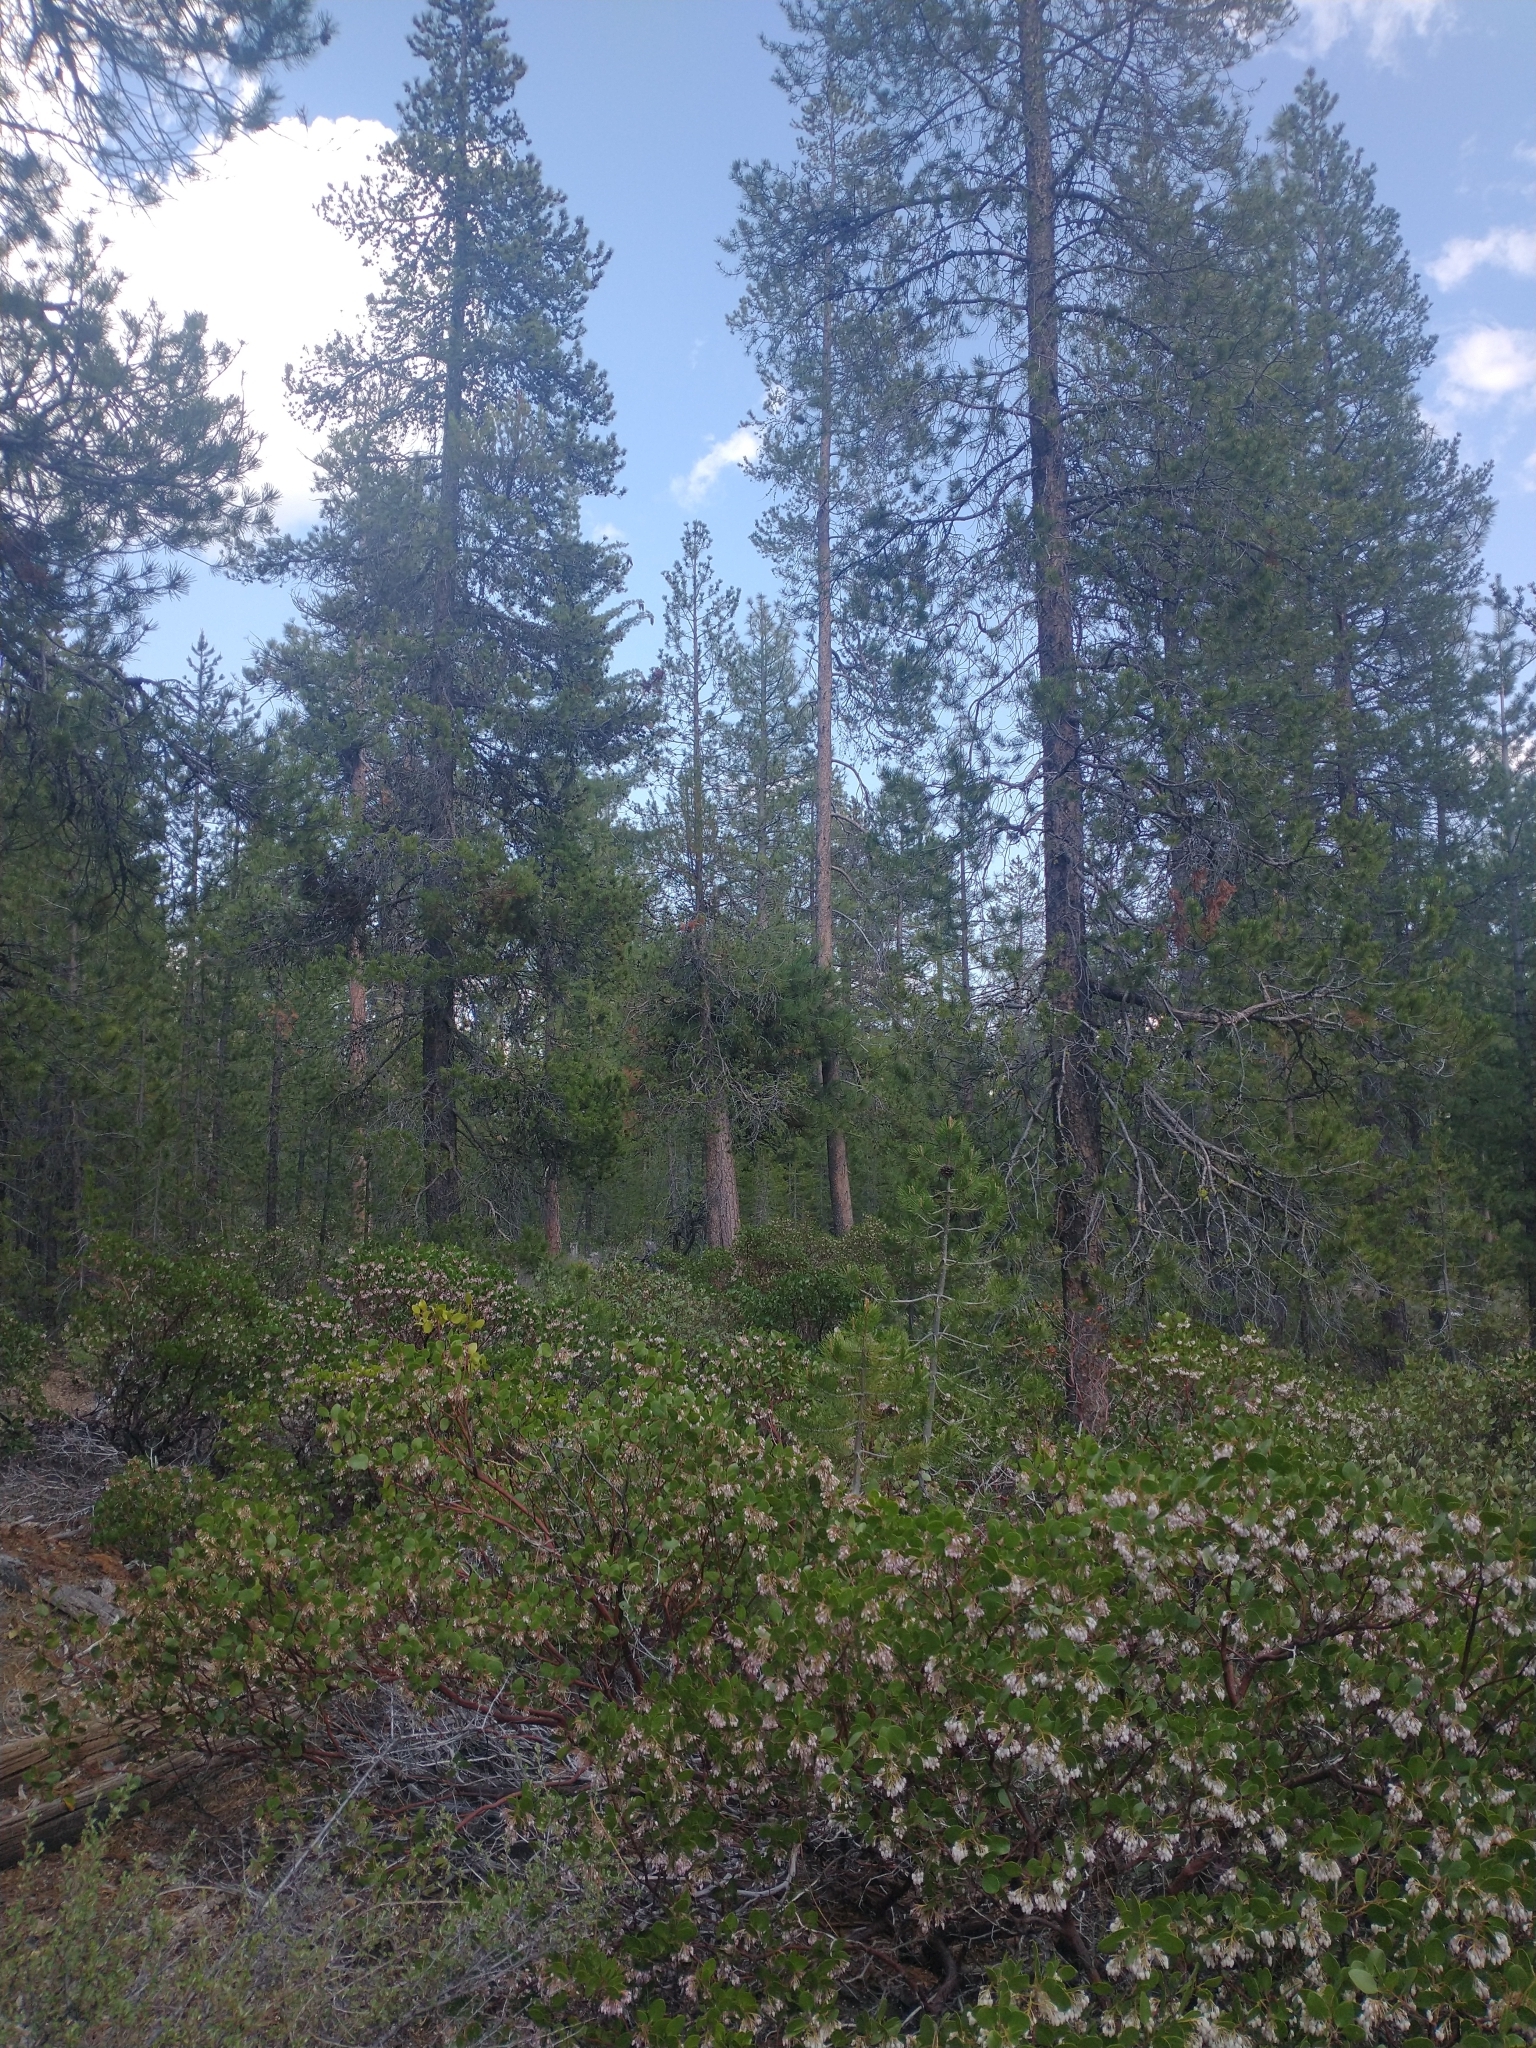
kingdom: Plantae
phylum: Tracheophyta
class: Pinopsida
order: Pinales
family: Pinaceae
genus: Pinus
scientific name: Pinus contorta
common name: Lodgepole pine
